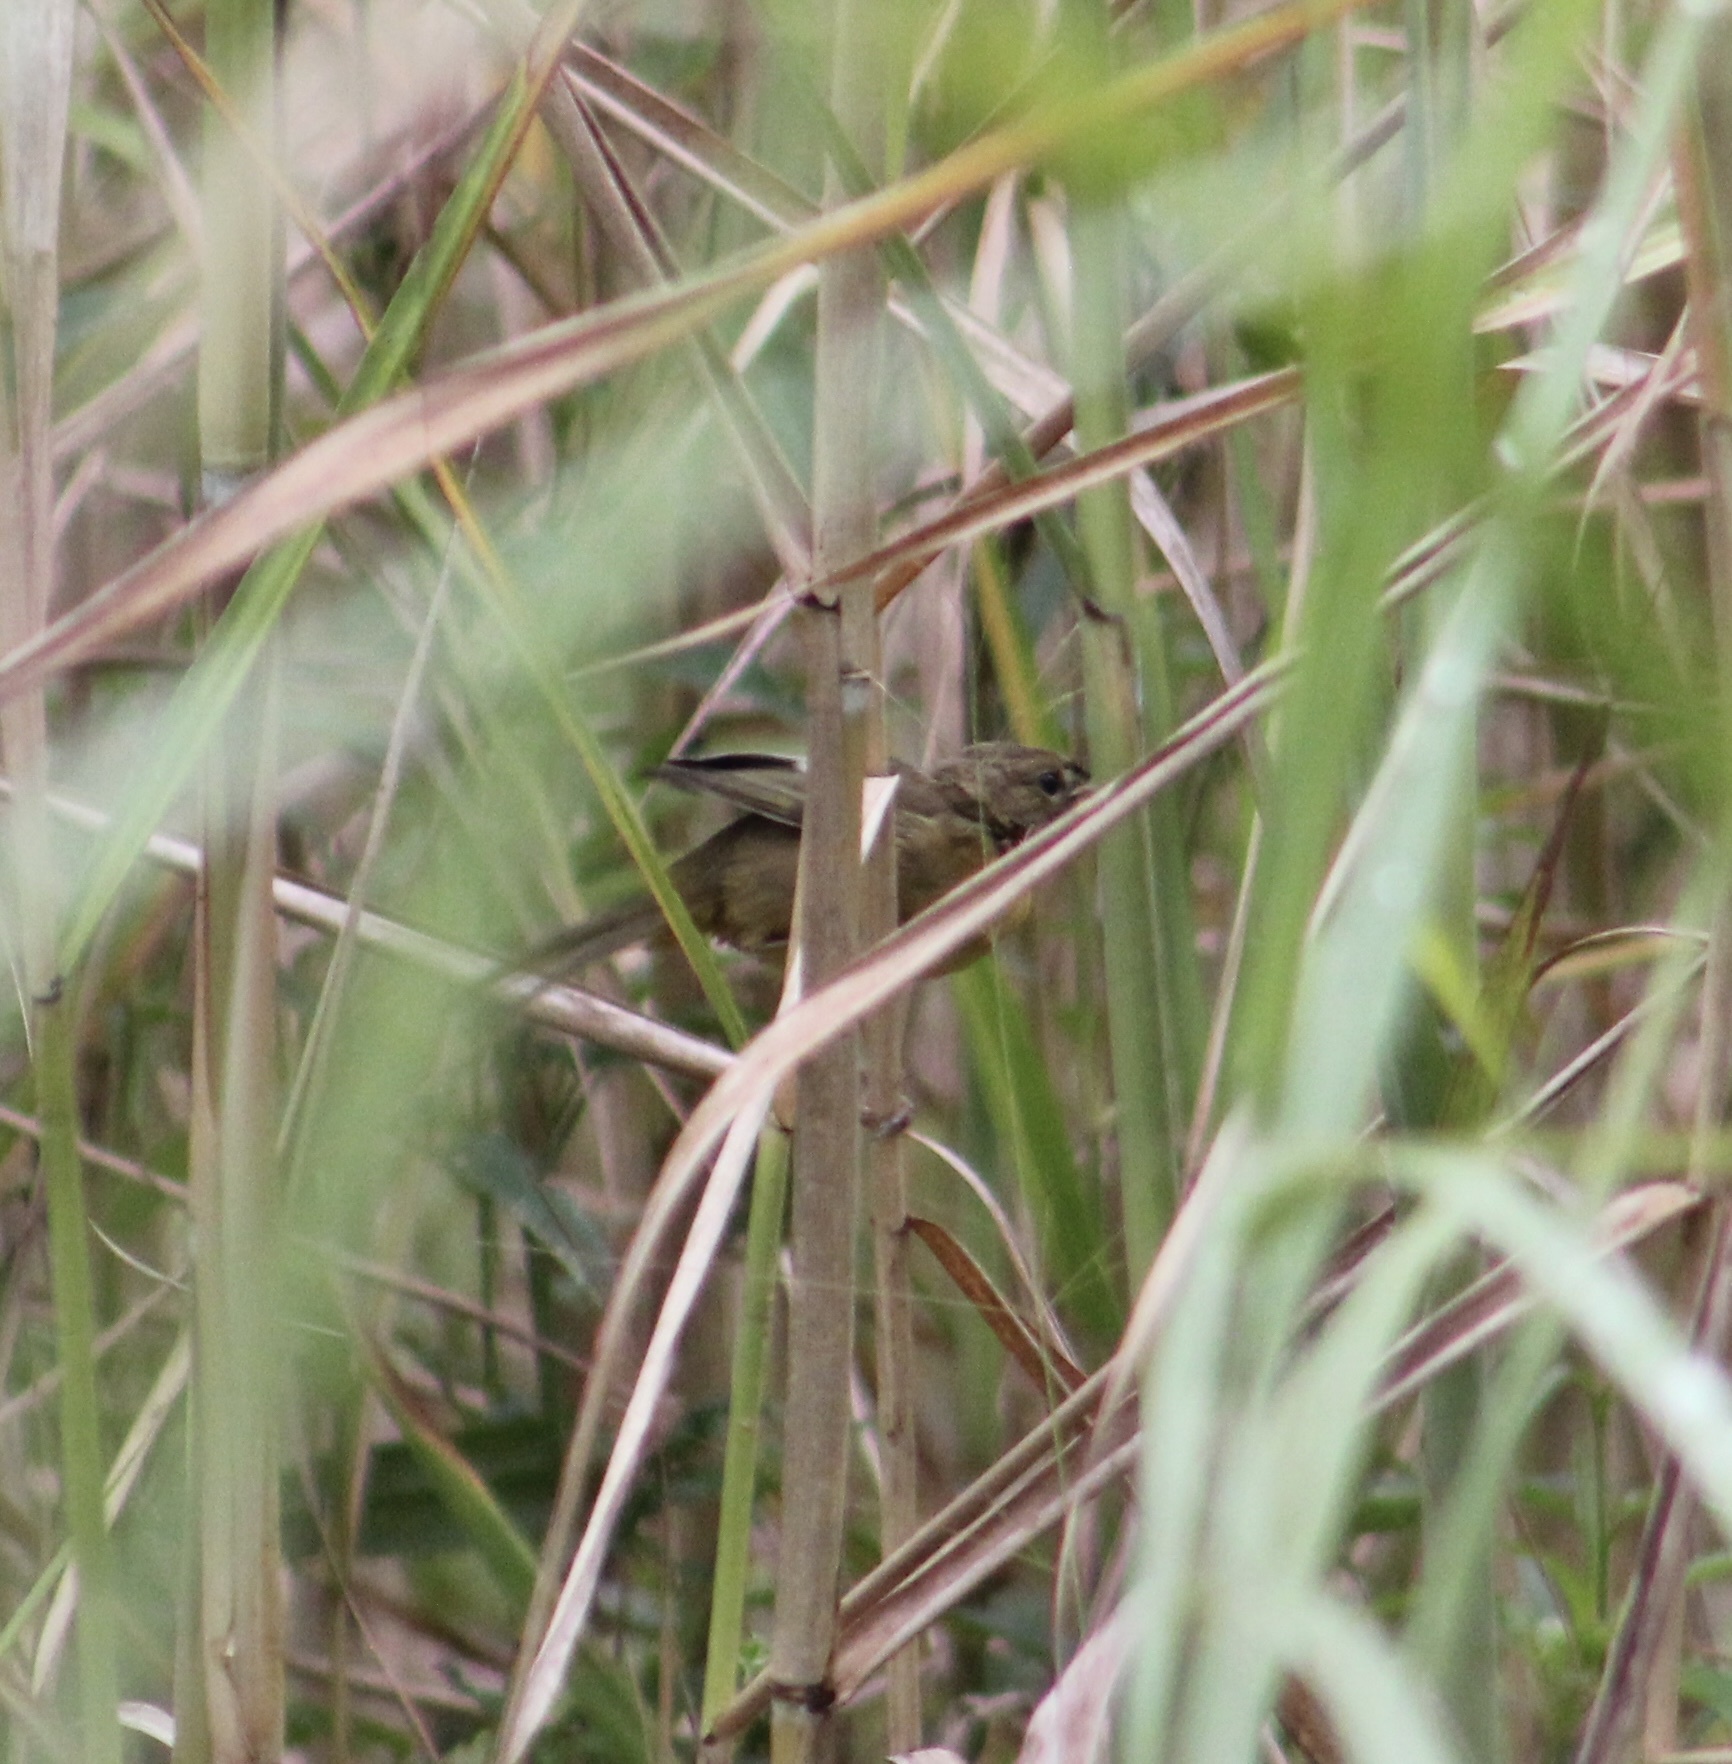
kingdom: Animalia
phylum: Chordata
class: Aves
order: Passeriformes
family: Parulidae
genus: Geothlypis
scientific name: Geothlypis trichas
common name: Common yellowthroat
